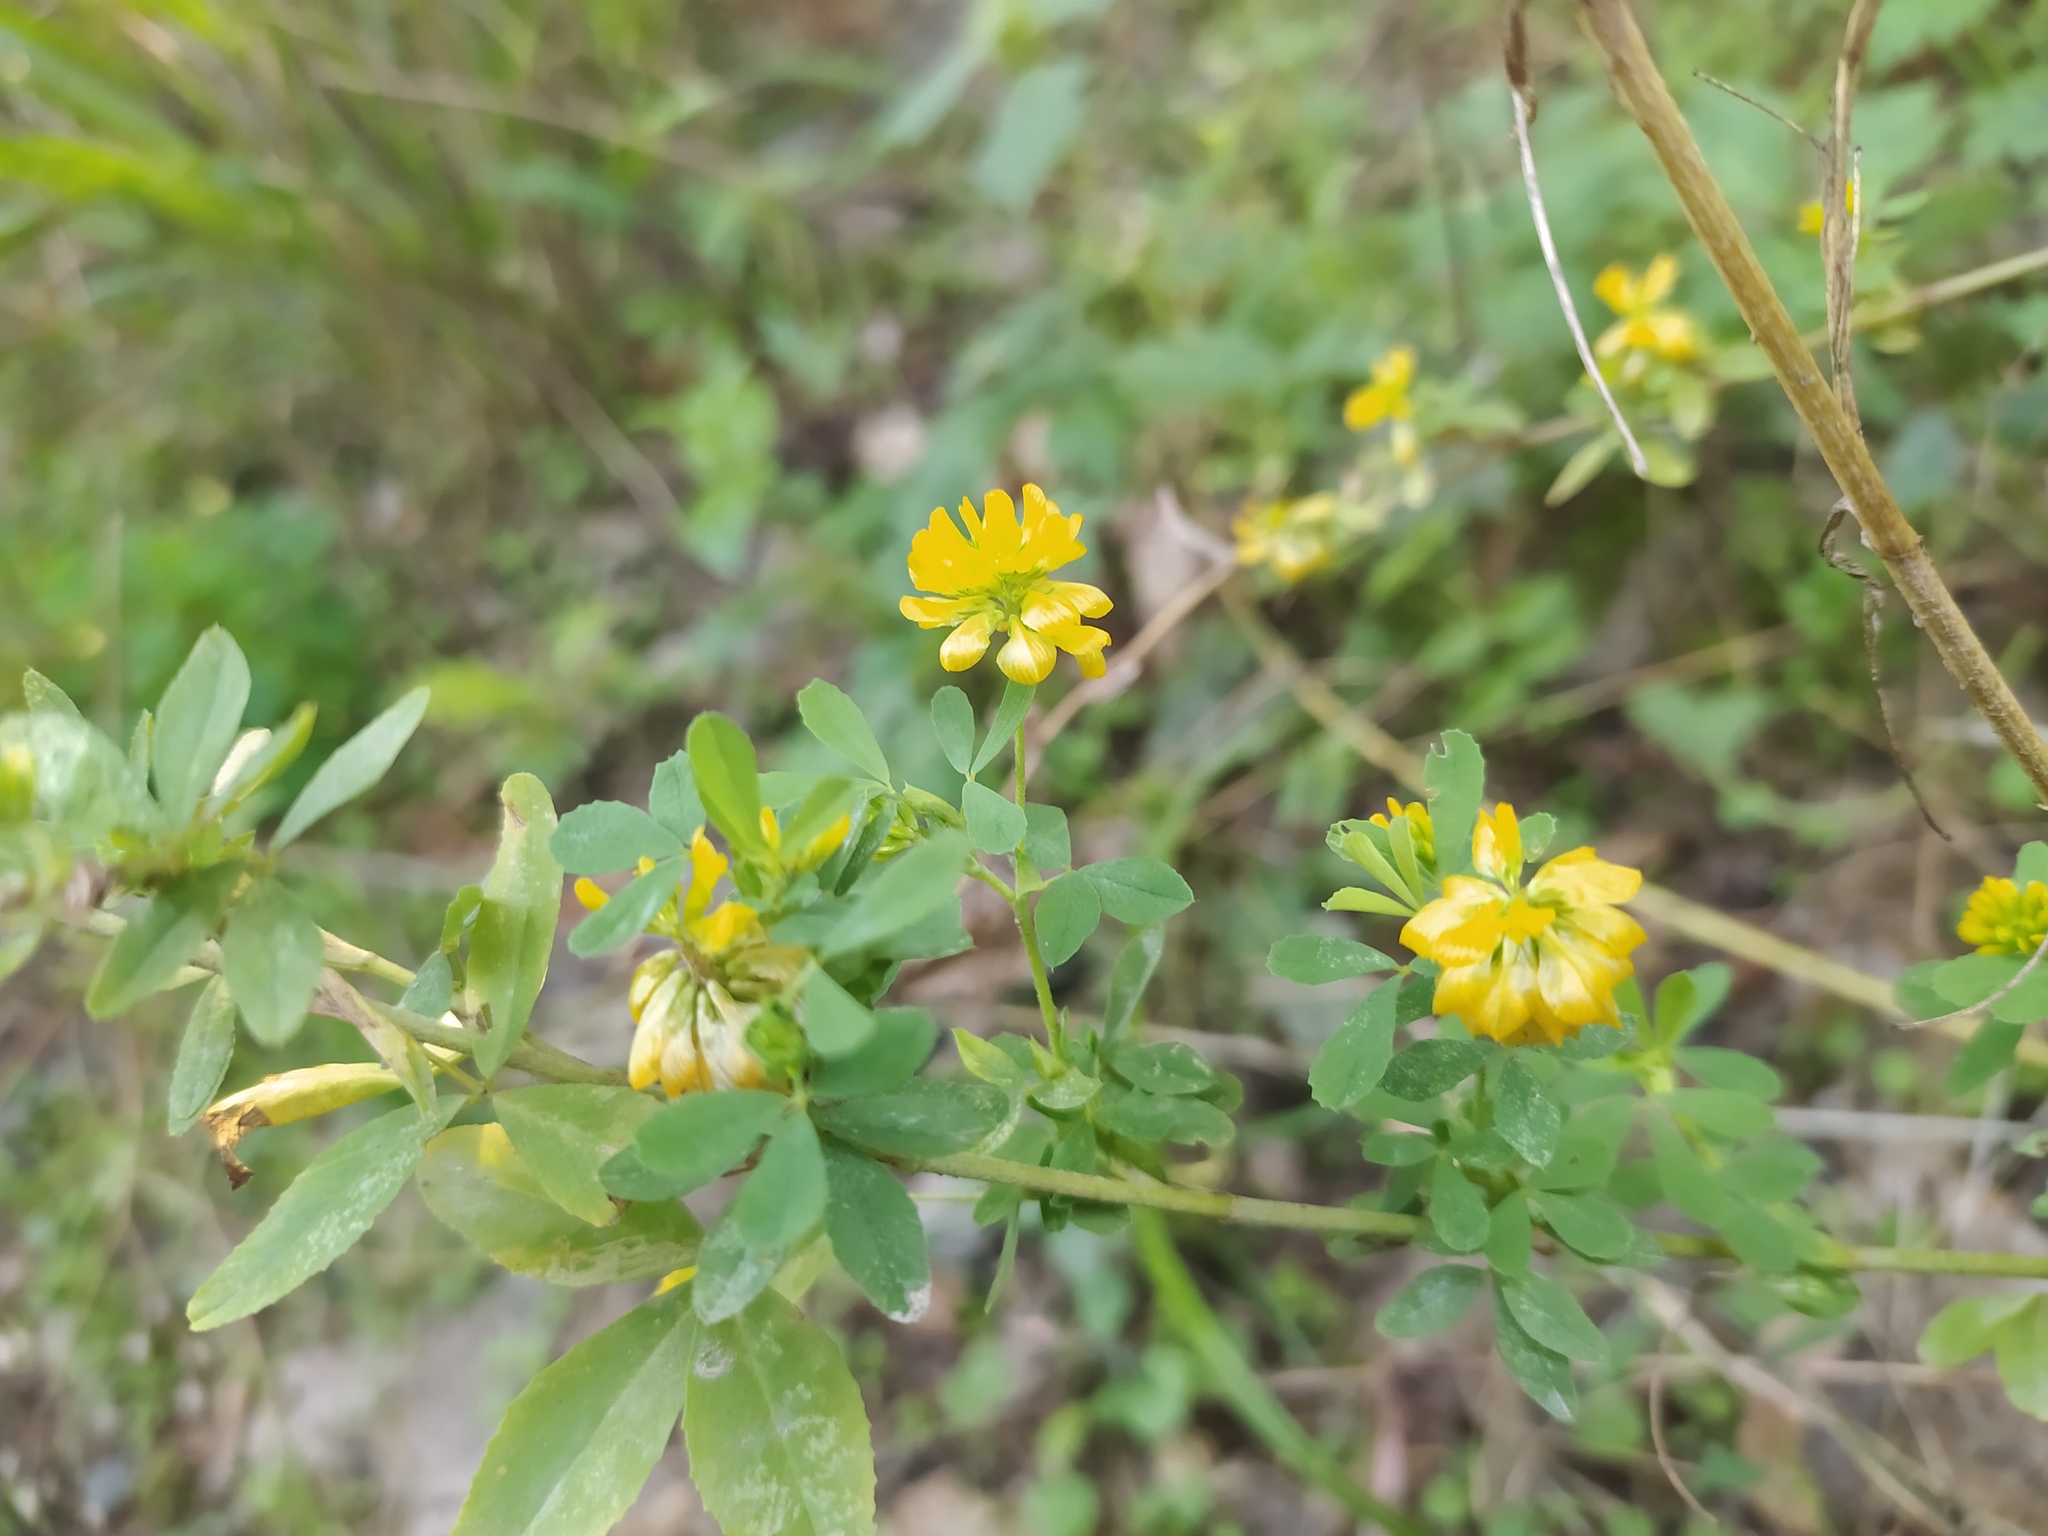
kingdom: Plantae
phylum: Tracheophyta
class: Magnoliopsida
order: Fabales
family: Fabaceae
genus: Trifolium
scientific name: Trifolium aureum
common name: Golden clover
